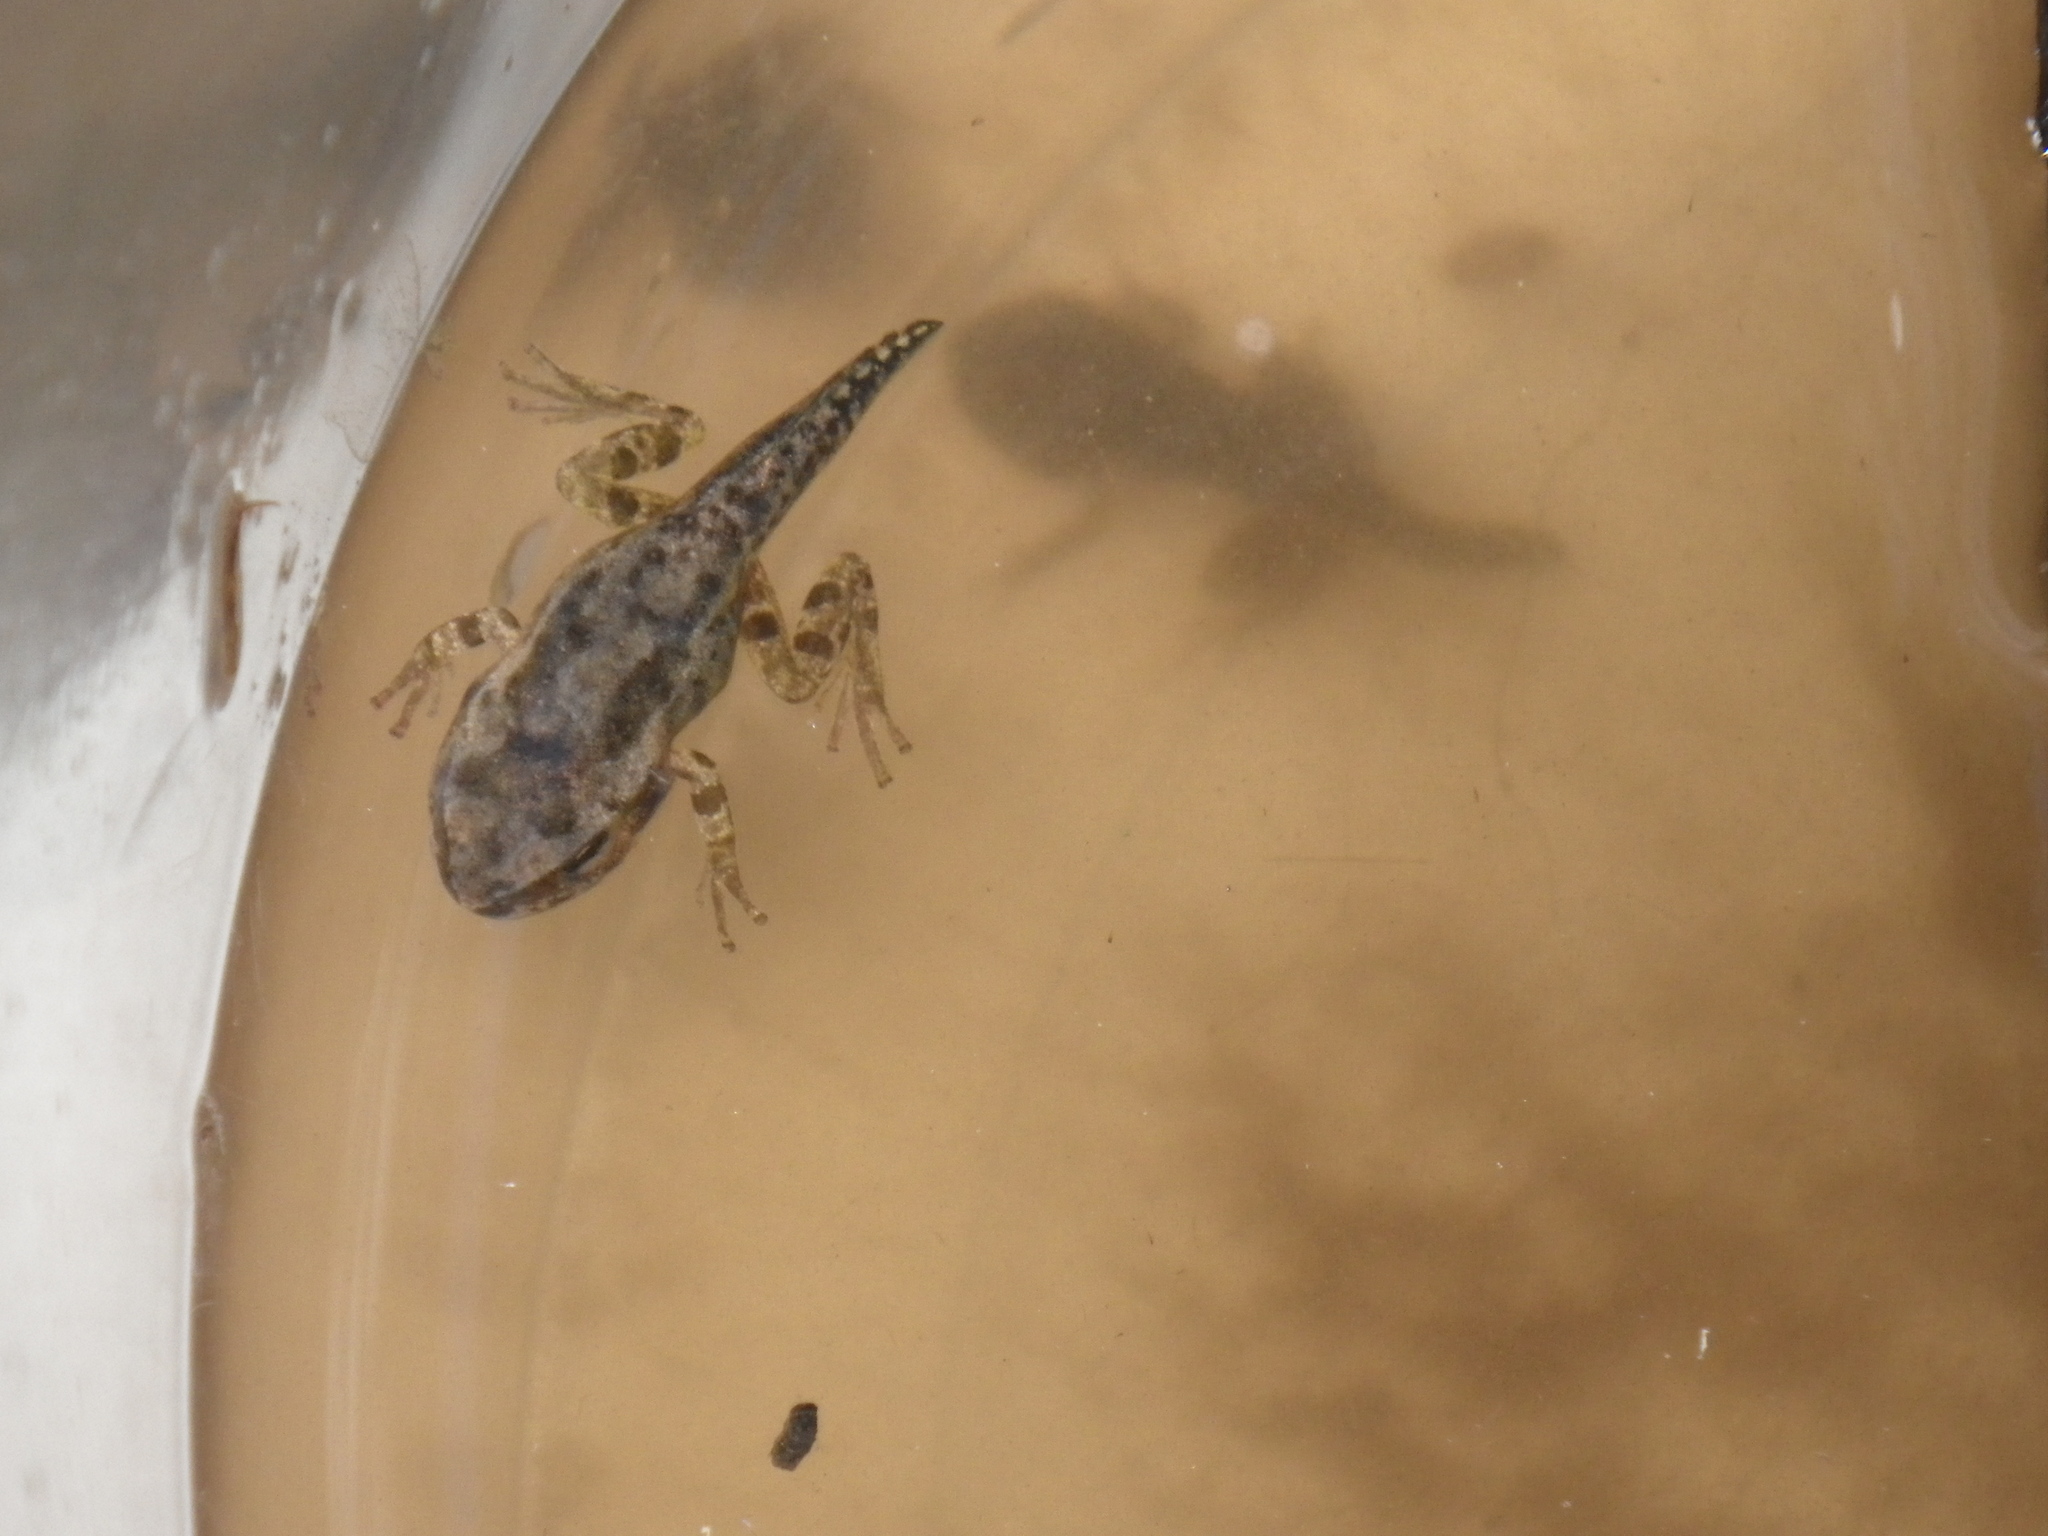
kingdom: Animalia
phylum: Chordata
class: Amphibia
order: Anura
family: Hylidae
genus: Pseudacris
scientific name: Pseudacris regilla
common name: Pacific chorus frog
